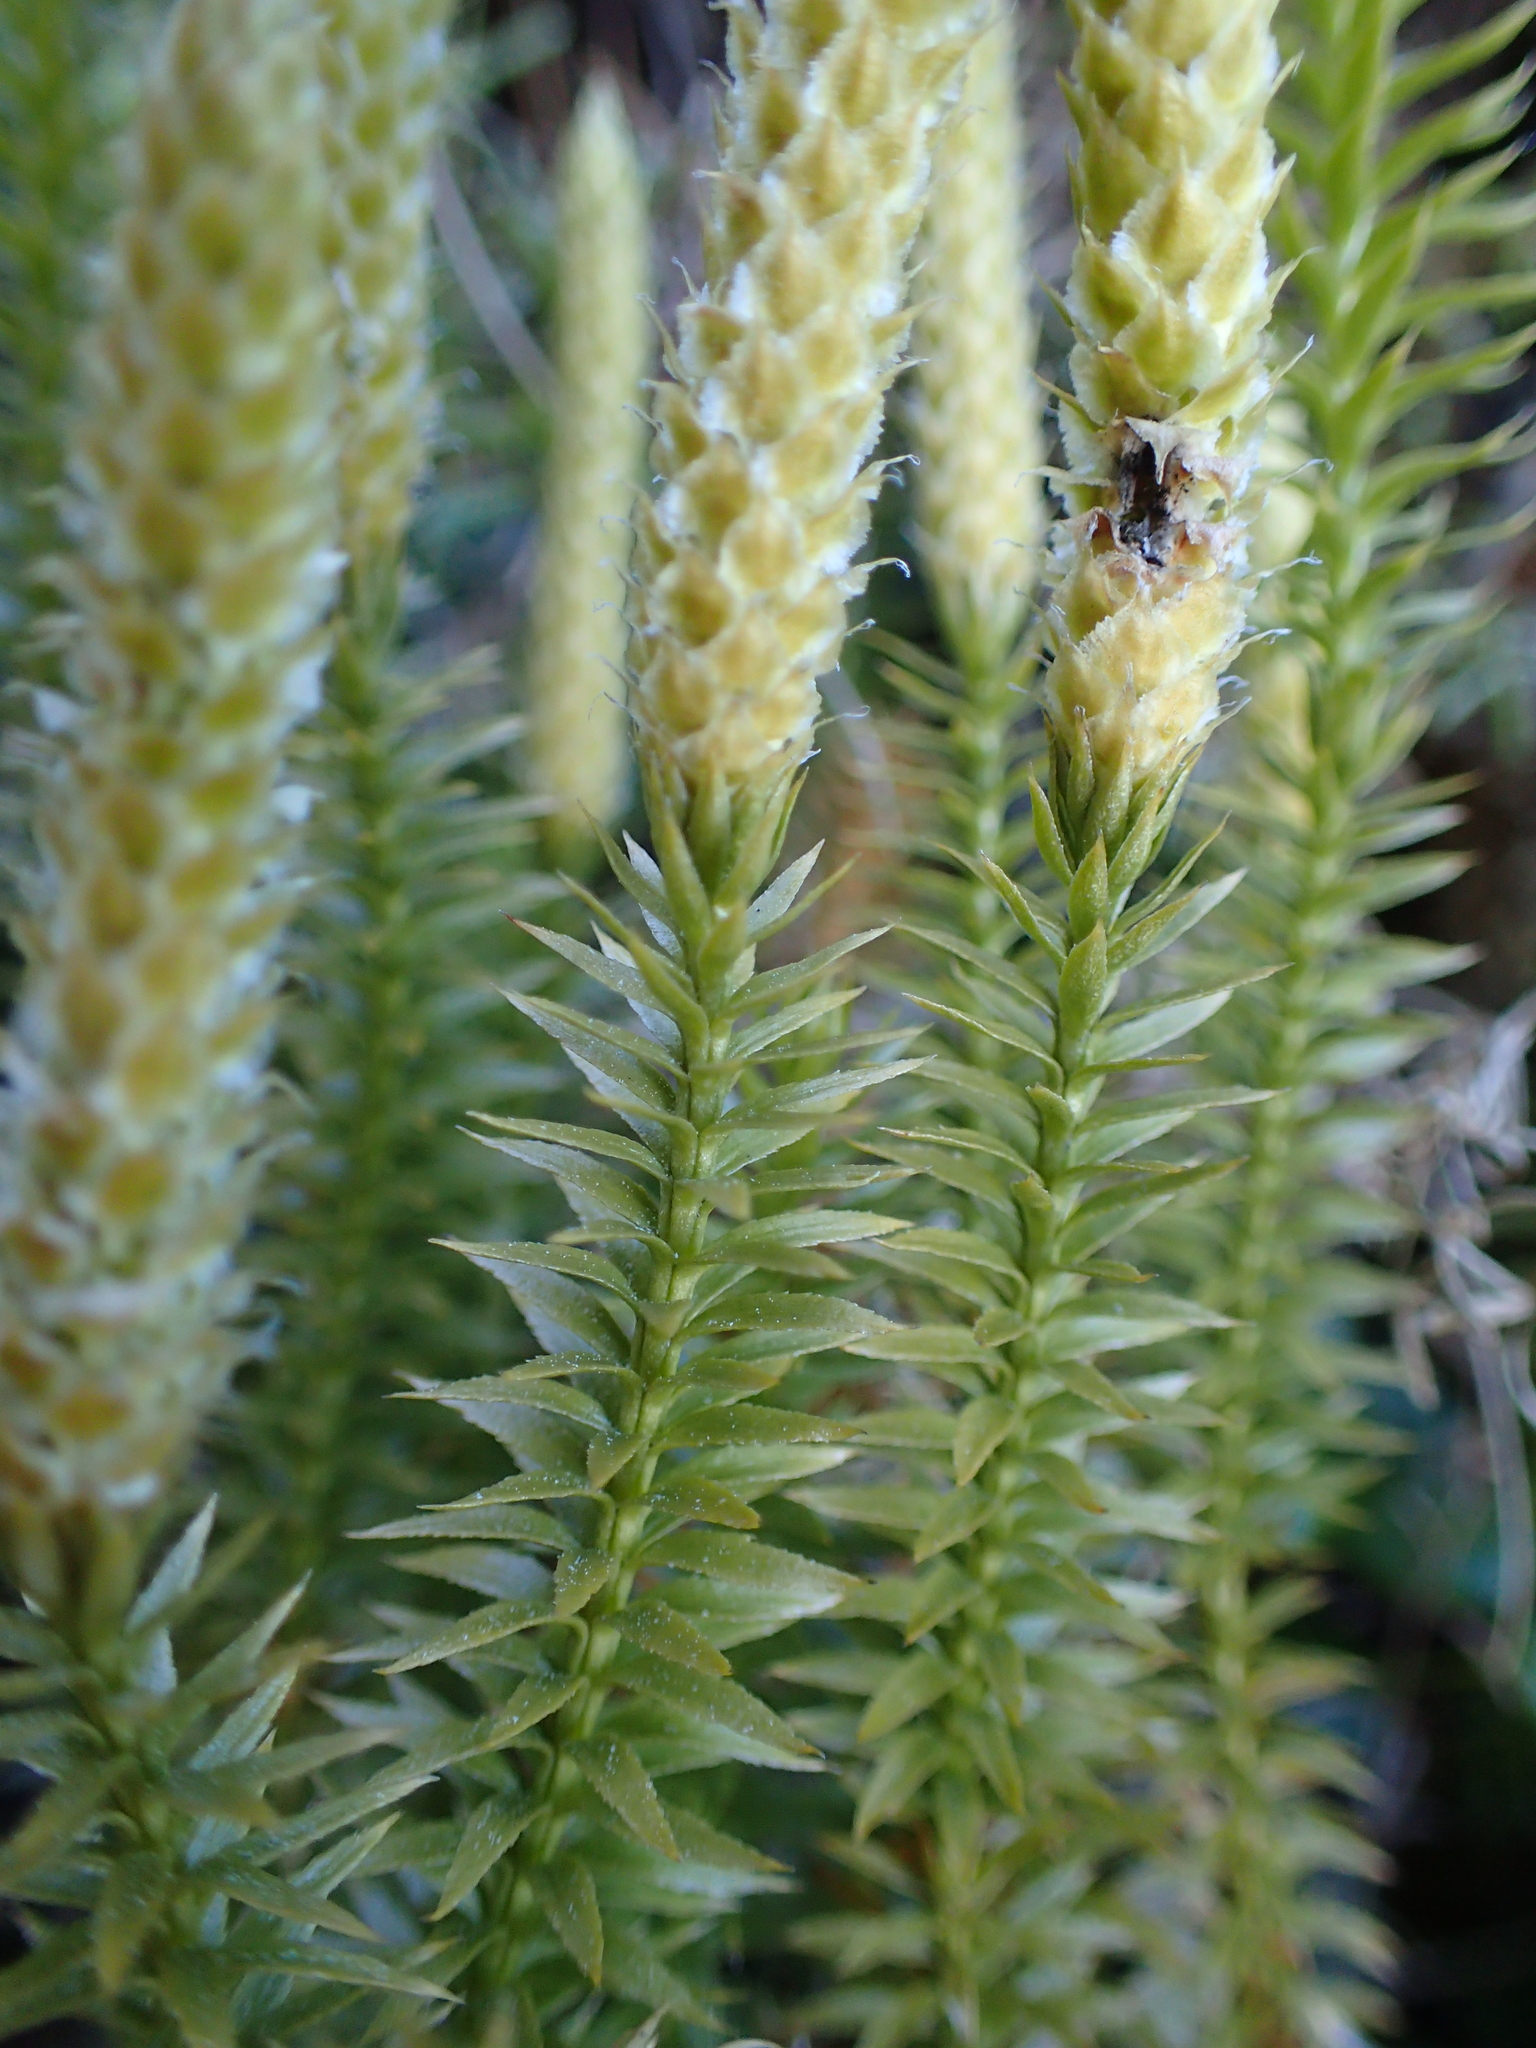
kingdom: Plantae
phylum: Tracheophyta
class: Lycopodiopsida
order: Lycopodiales
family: Lycopodiaceae
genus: Spinulum
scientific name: Spinulum annotinum
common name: Interrupted club-moss
